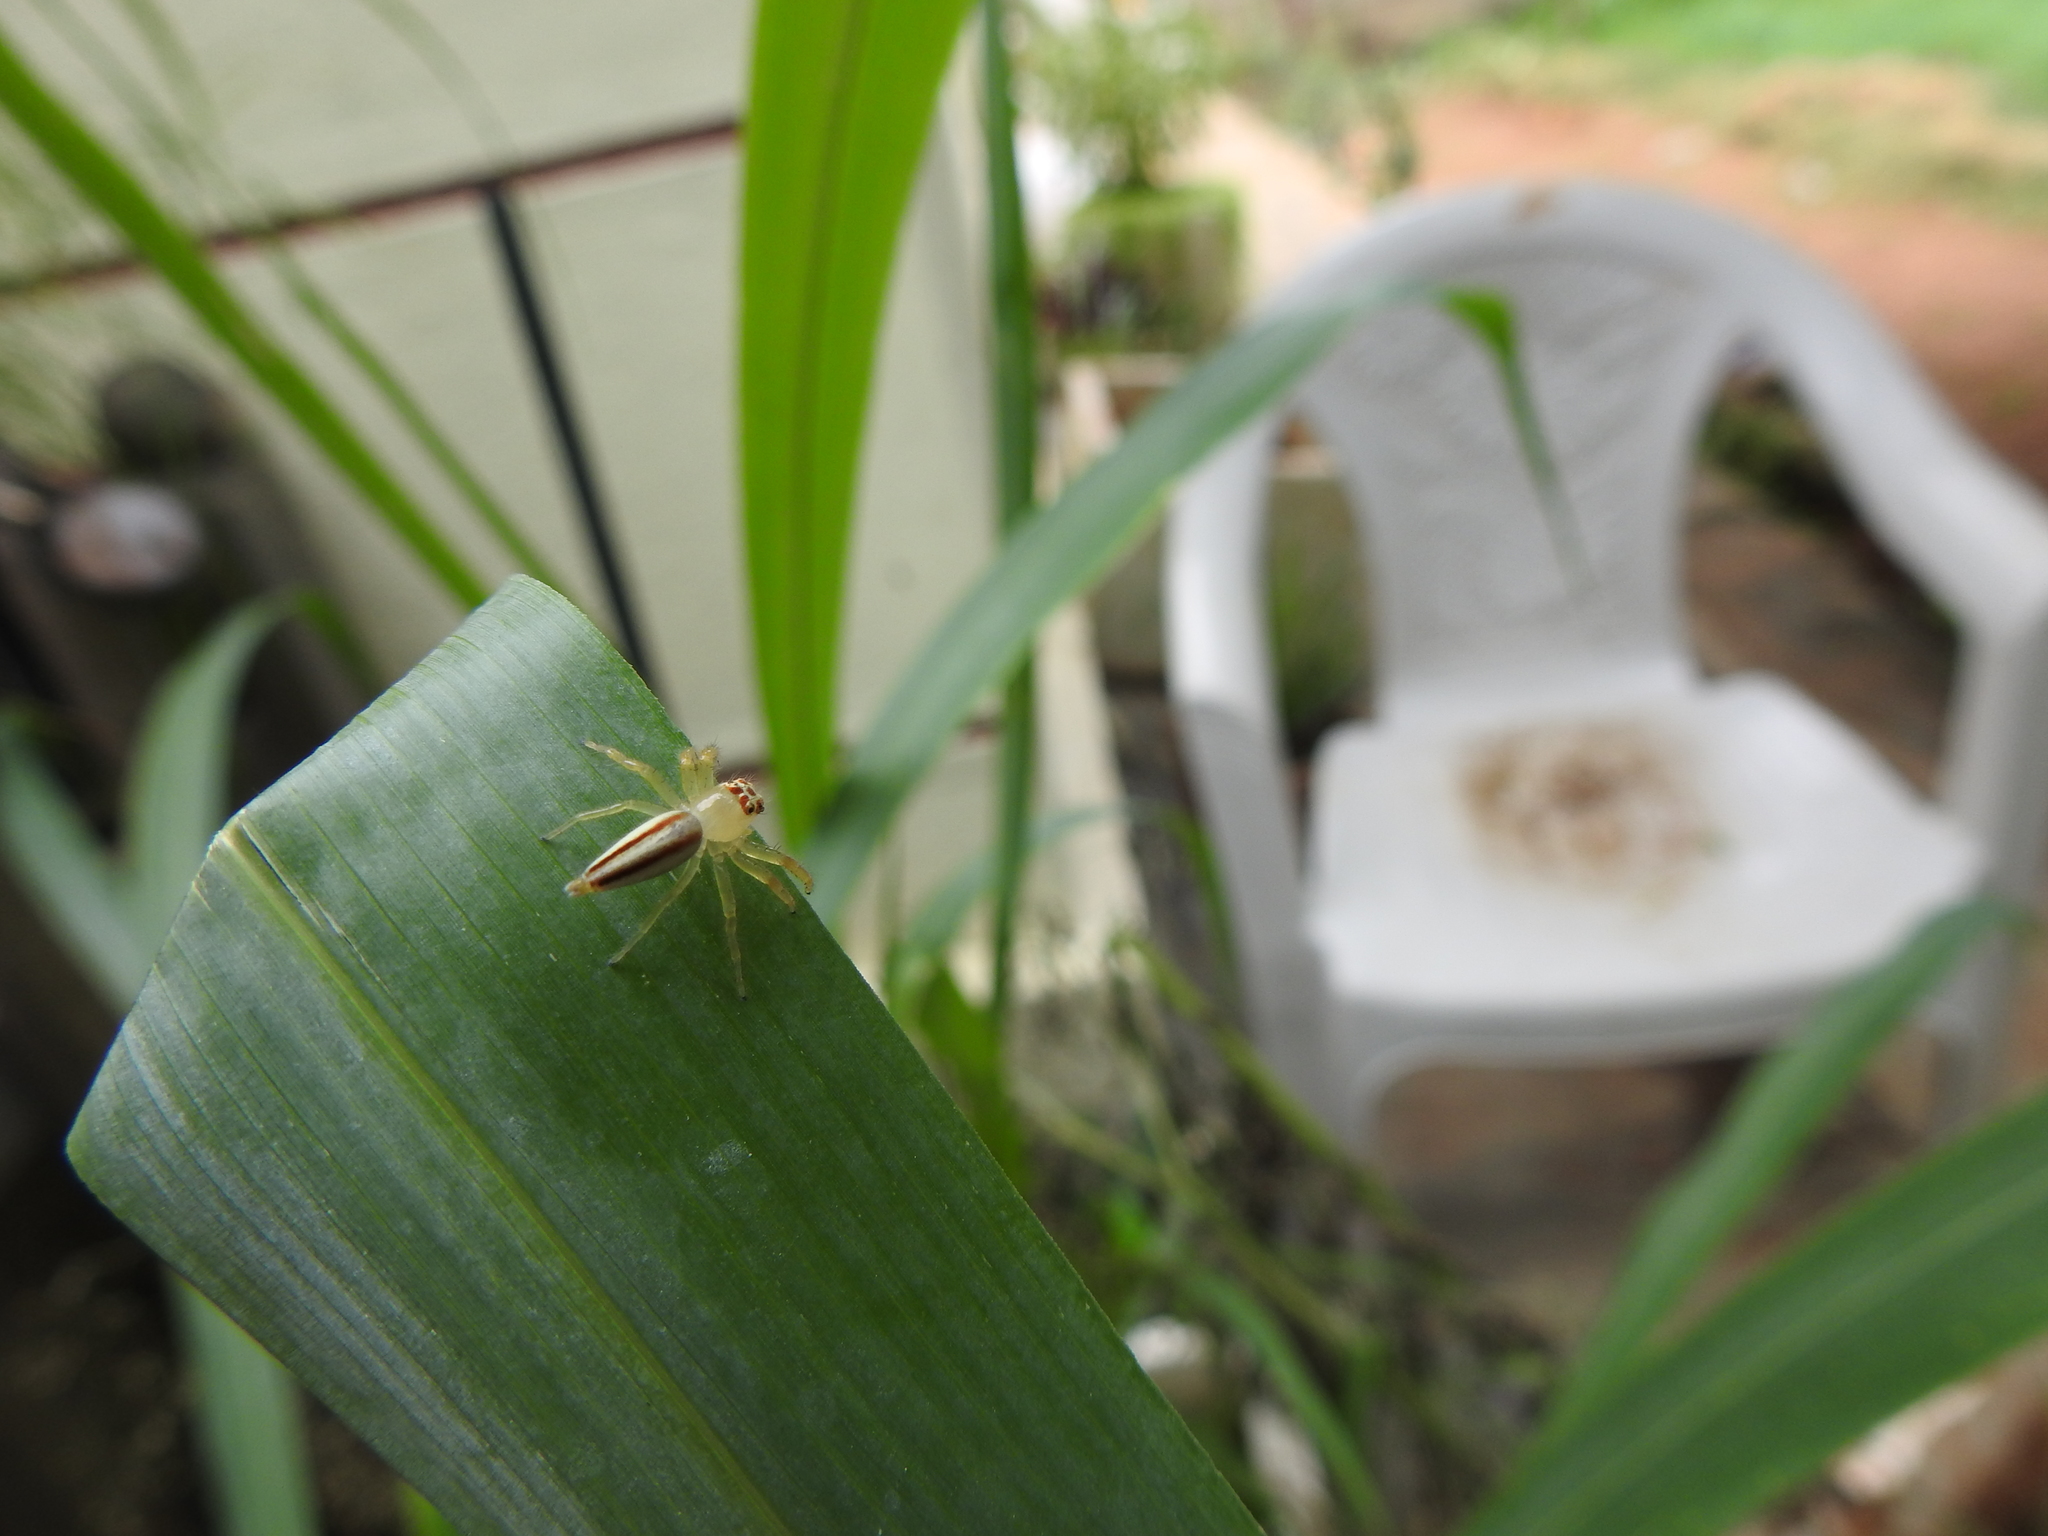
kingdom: Animalia
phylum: Arthropoda
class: Arachnida
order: Araneae
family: Salticidae
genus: Telamonia
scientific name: Telamonia dimidiata
